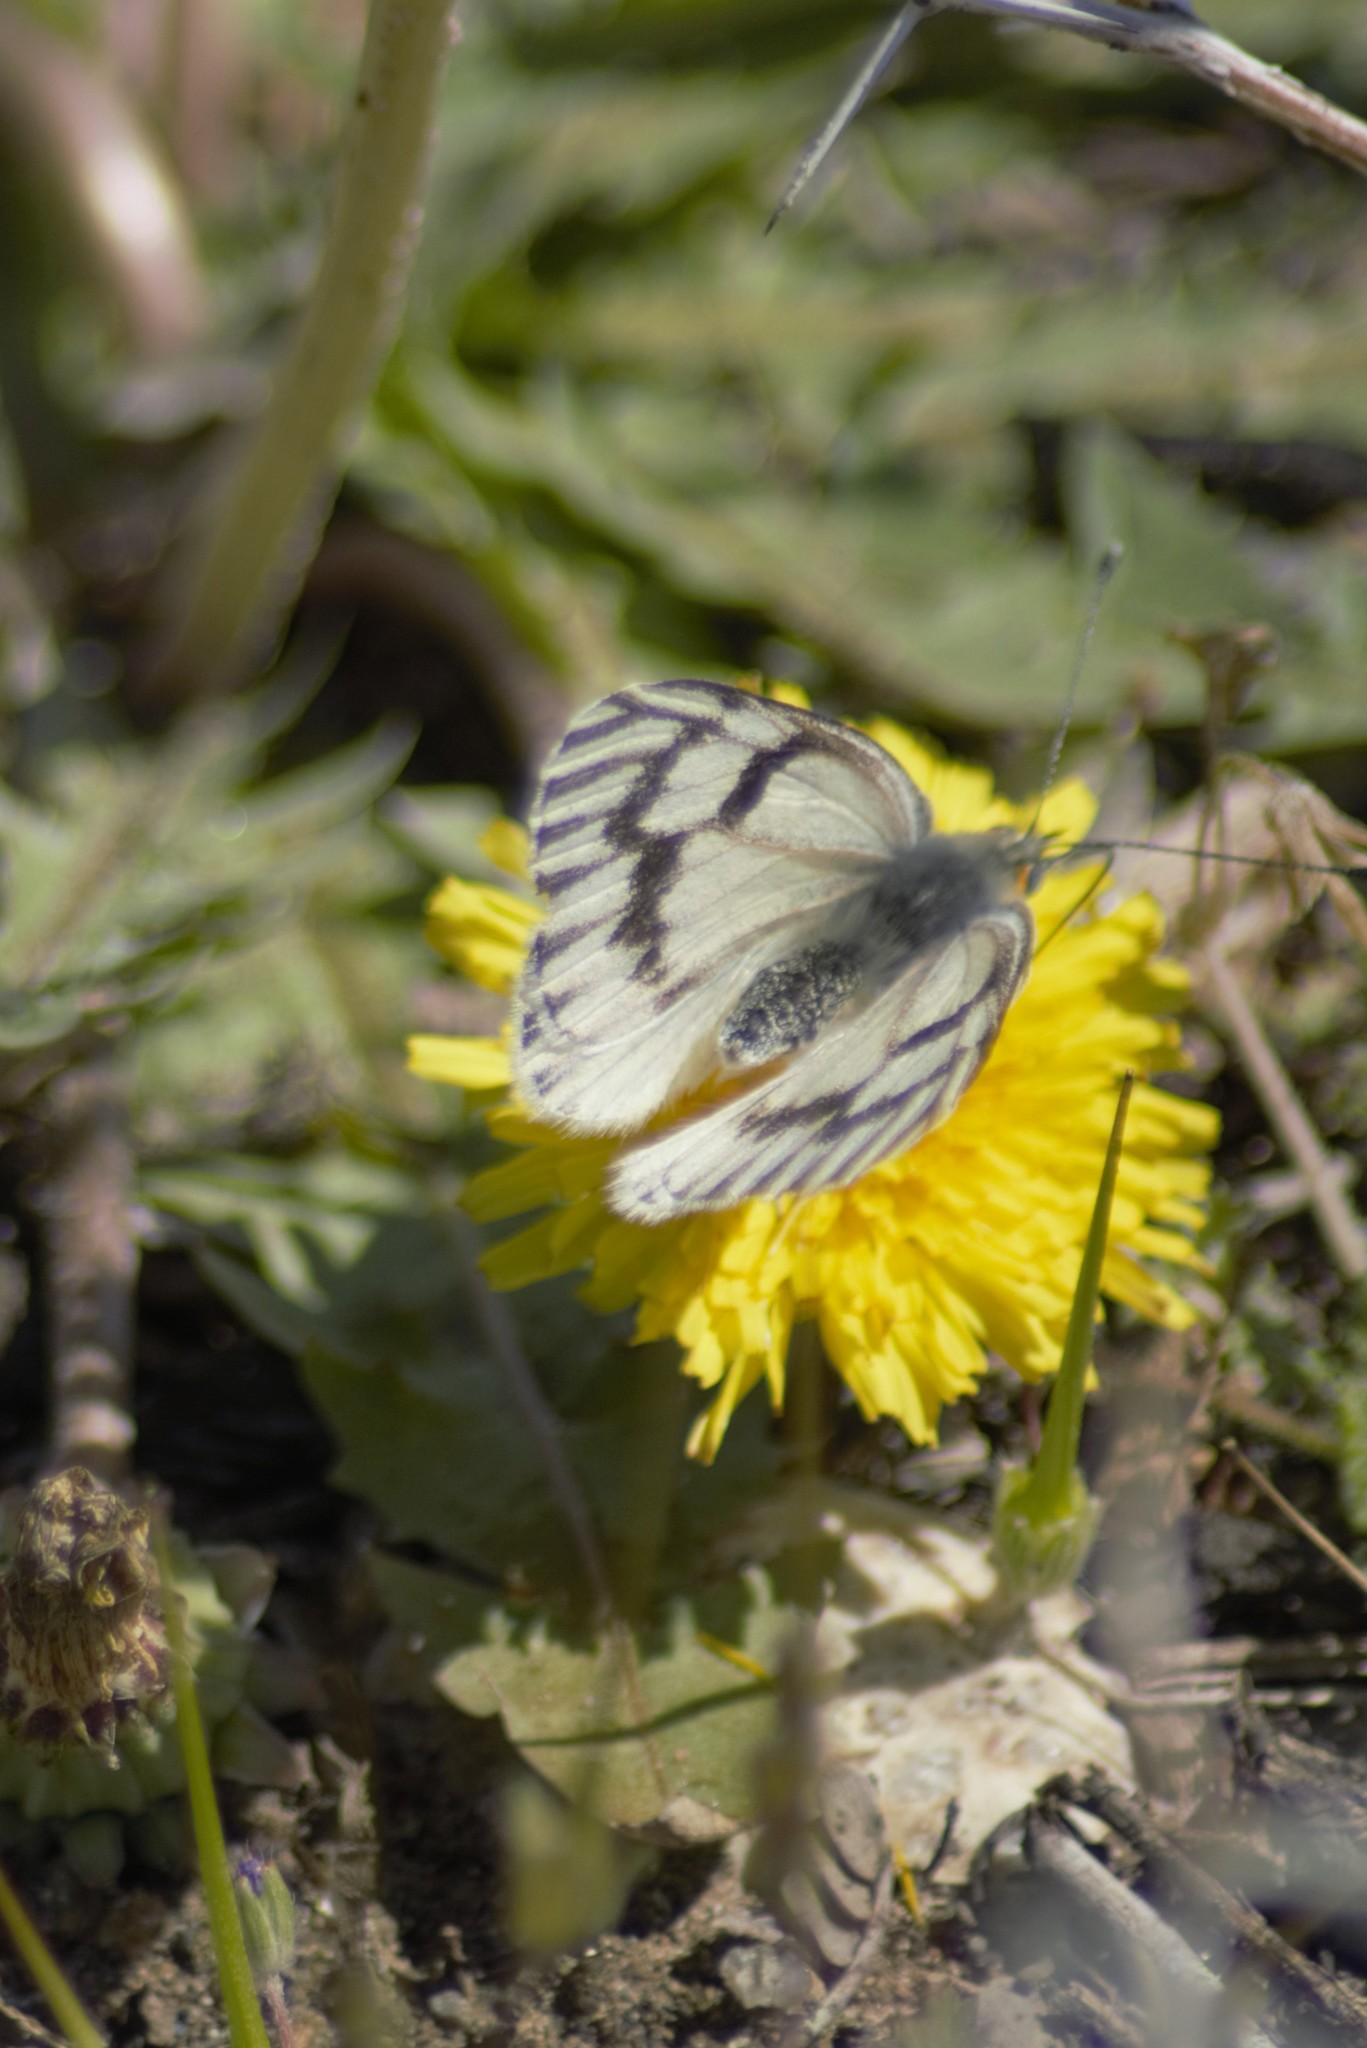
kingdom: Animalia
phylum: Arthropoda
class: Insecta
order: Lepidoptera
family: Pieridae
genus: Tatochila
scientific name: Tatochila mercedis
